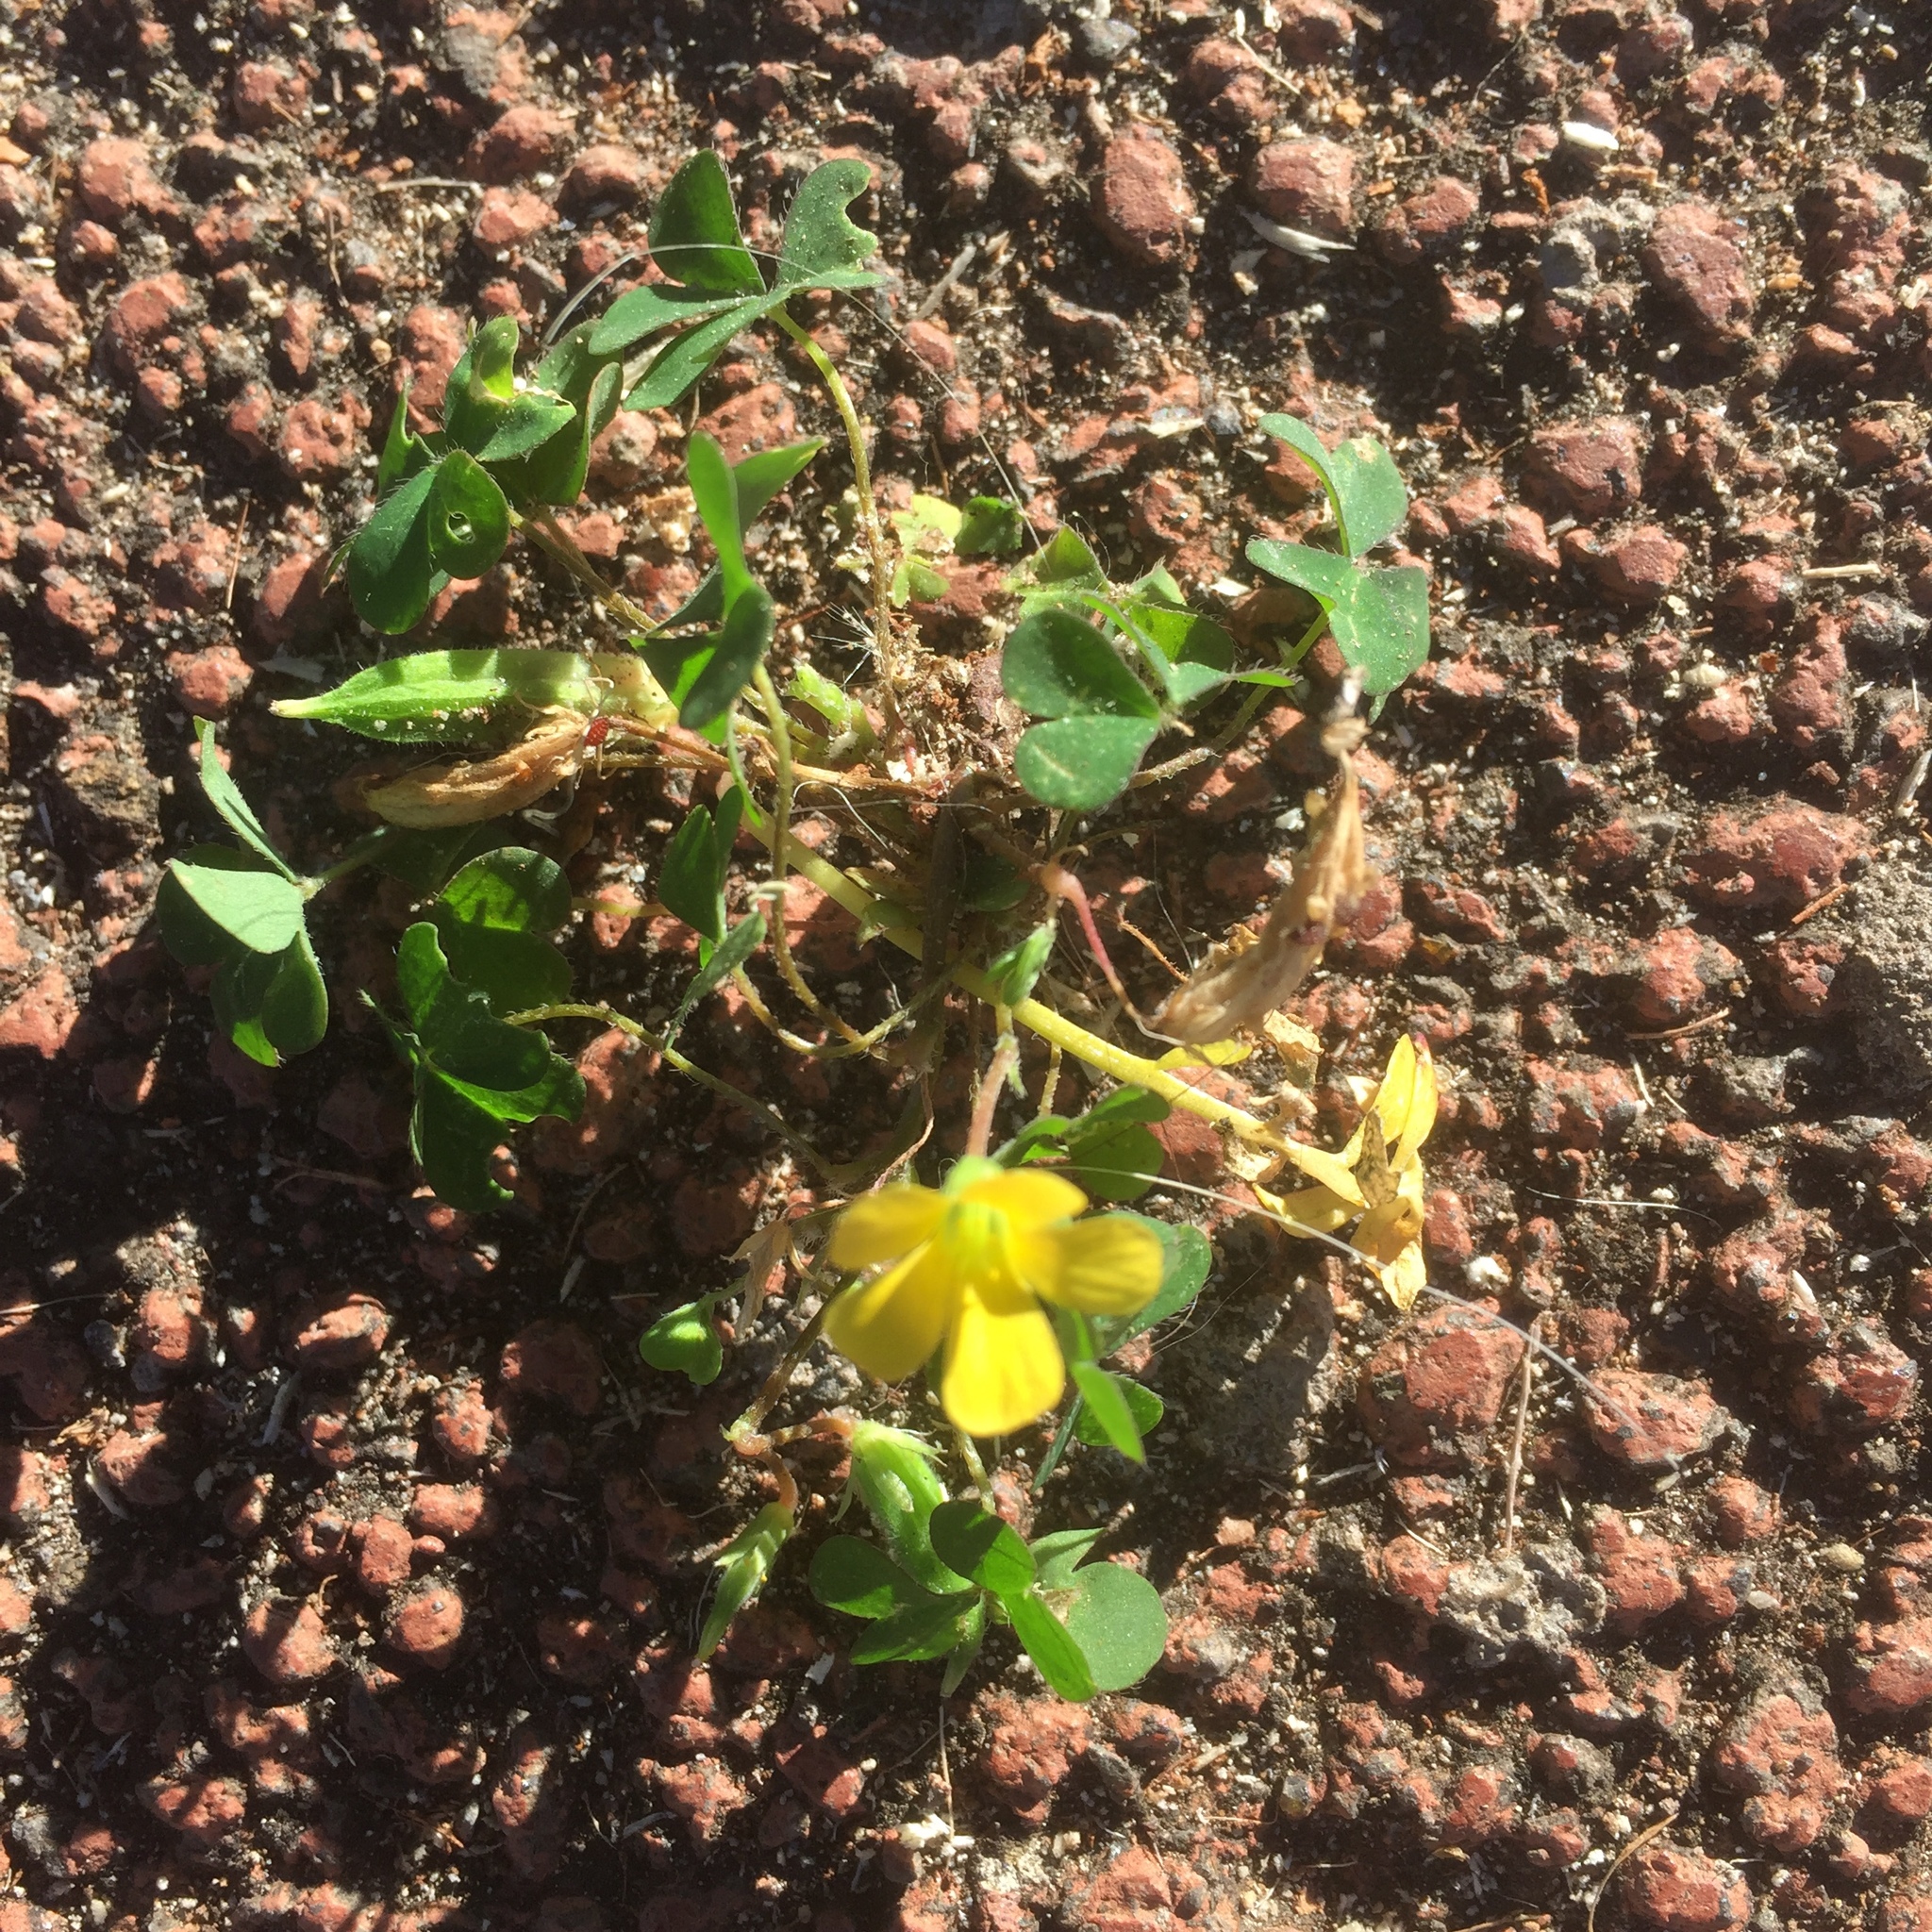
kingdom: Plantae
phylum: Tracheophyta
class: Magnoliopsida
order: Oxalidales
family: Oxalidaceae
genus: Oxalis
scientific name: Oxalis corniculata
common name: Procumbent yellow-sorrel
